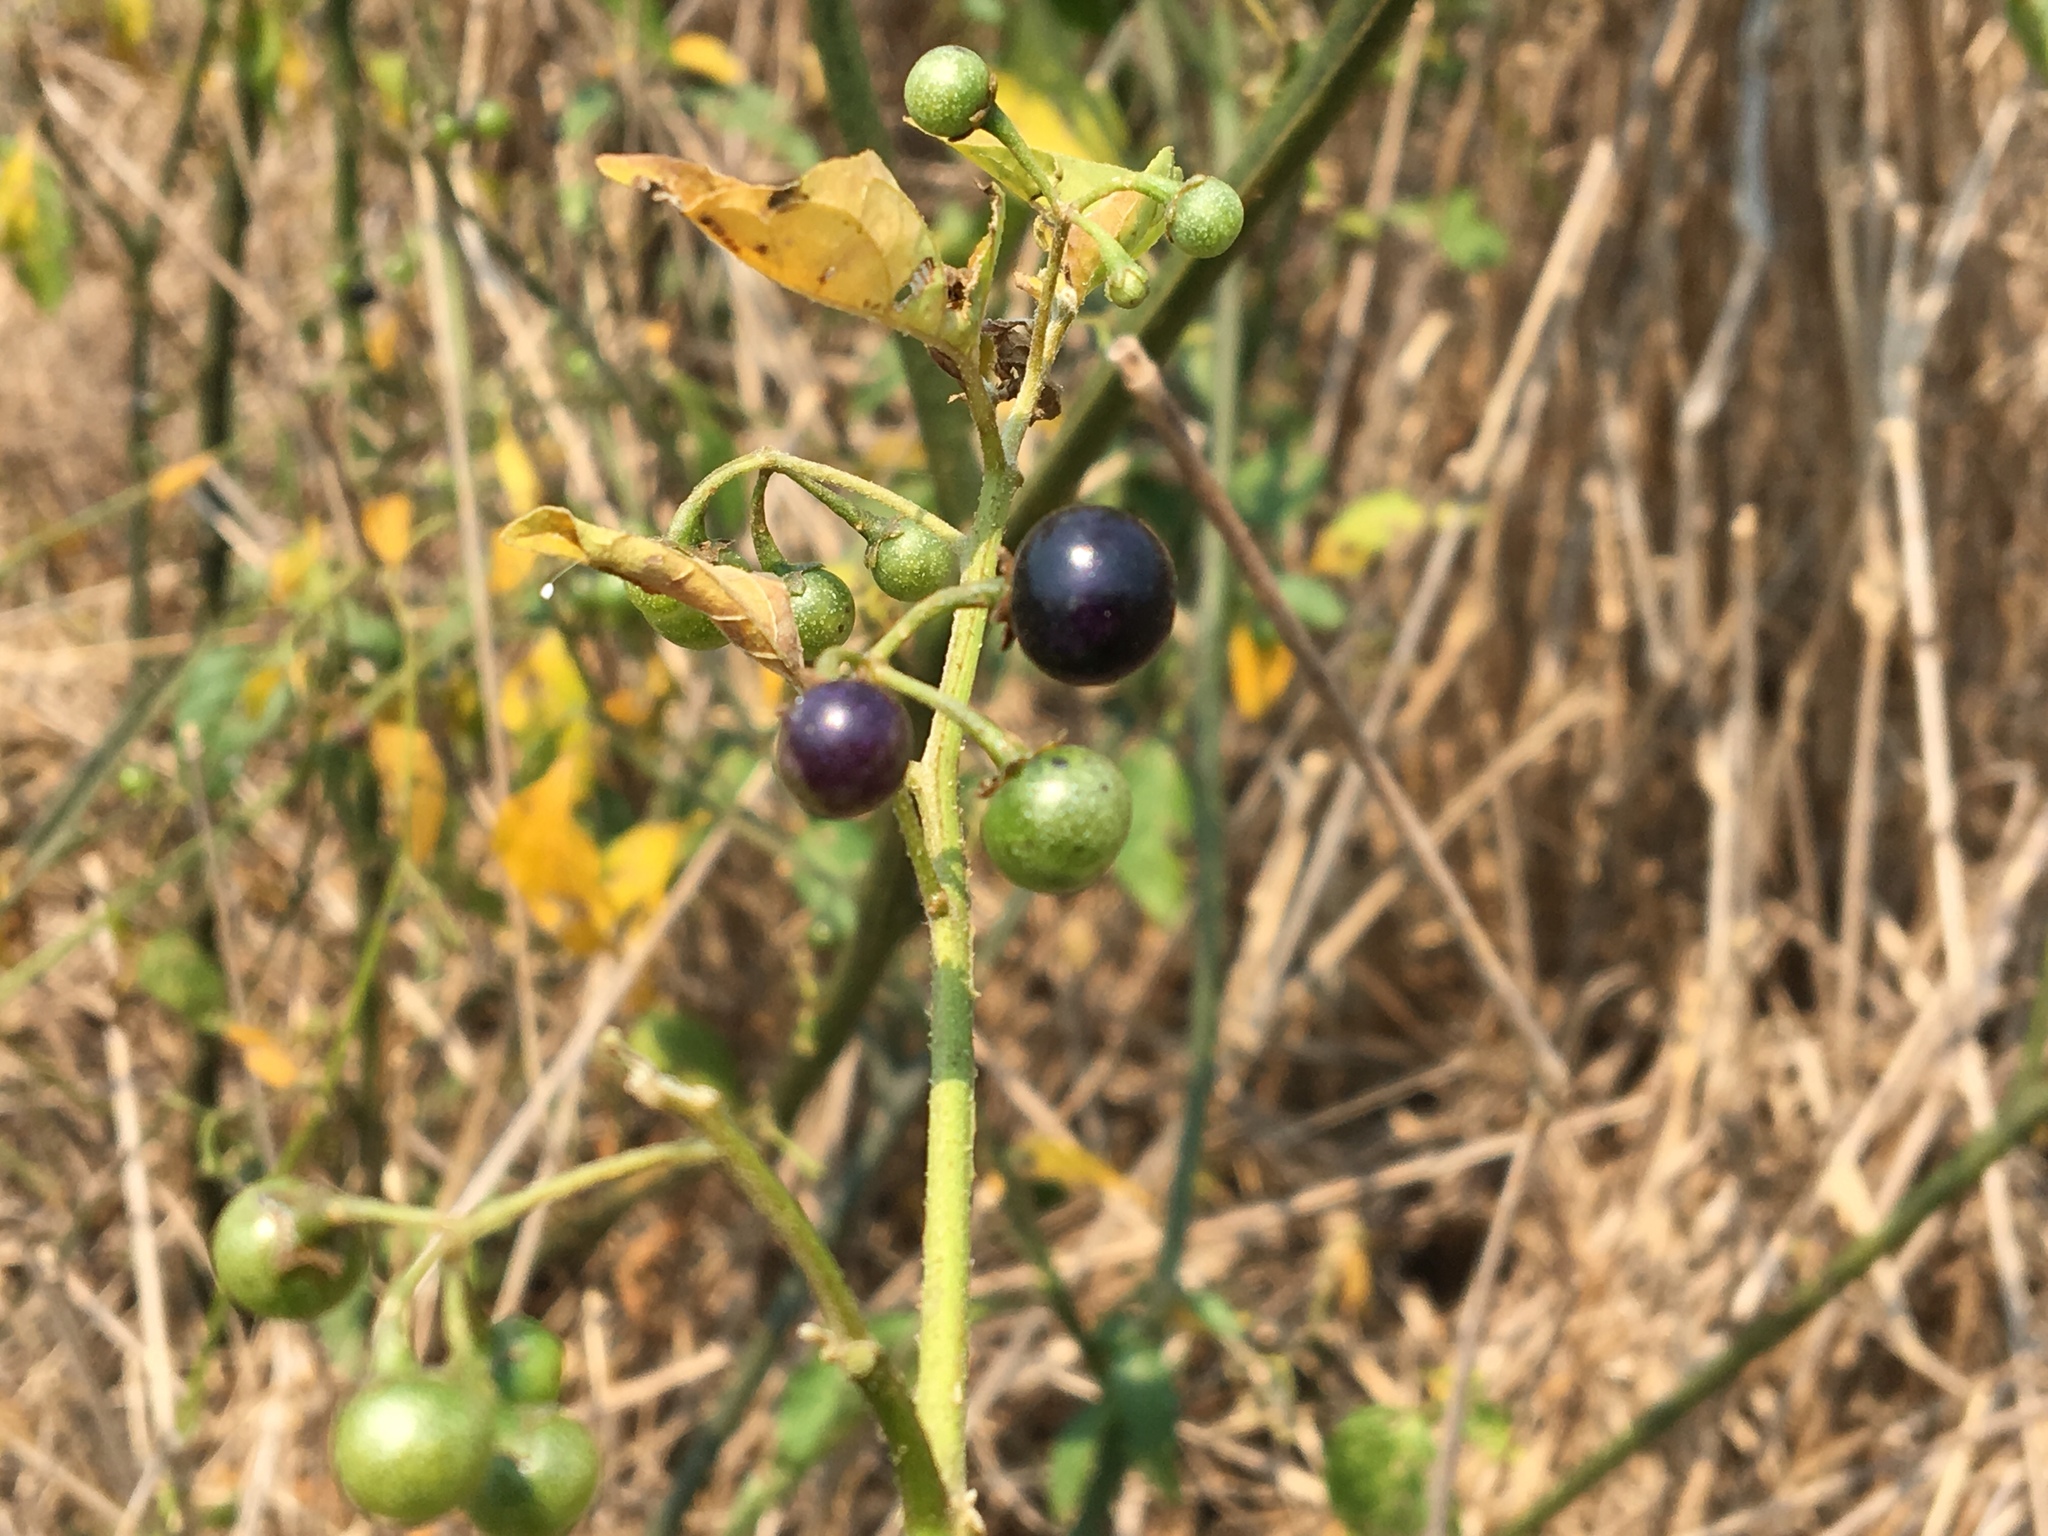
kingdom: Plantae
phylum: Tracheophyta
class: Magnoliopsida
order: Solanales
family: Solanaceae
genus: Solanum
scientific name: Solanum americanum
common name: American black nightshade
